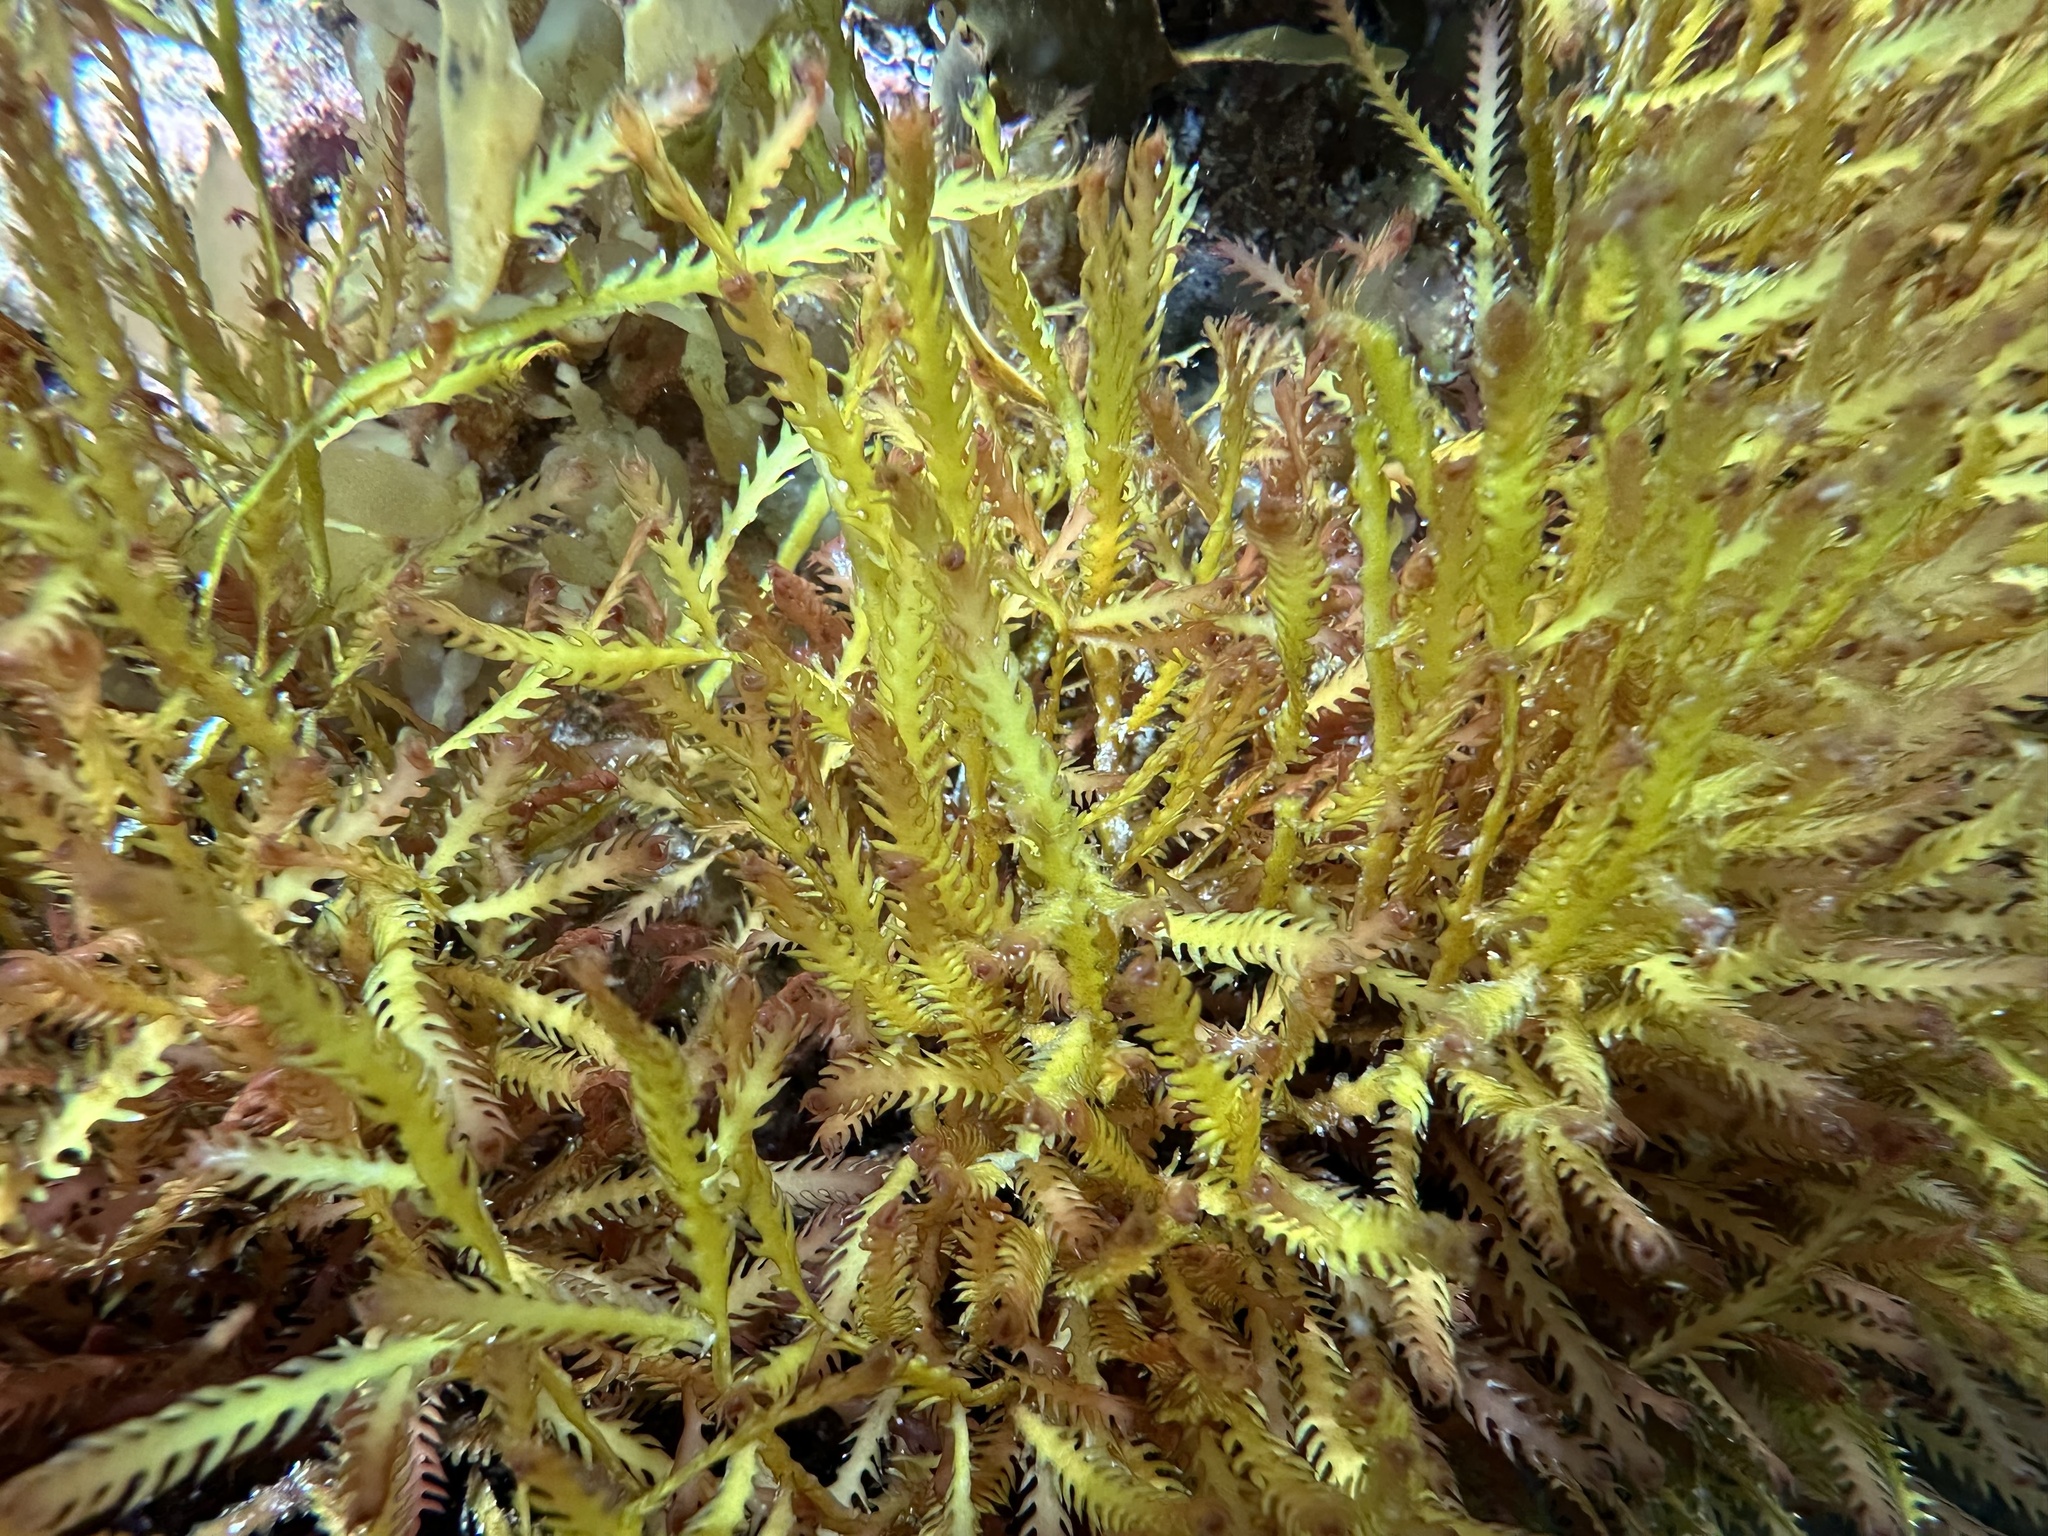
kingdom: Plantae
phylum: Rhodophyta
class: Florideophyceae
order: Ceramiales
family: Rhodomelaceae
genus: Vidalia
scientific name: Vidalia colensoi
